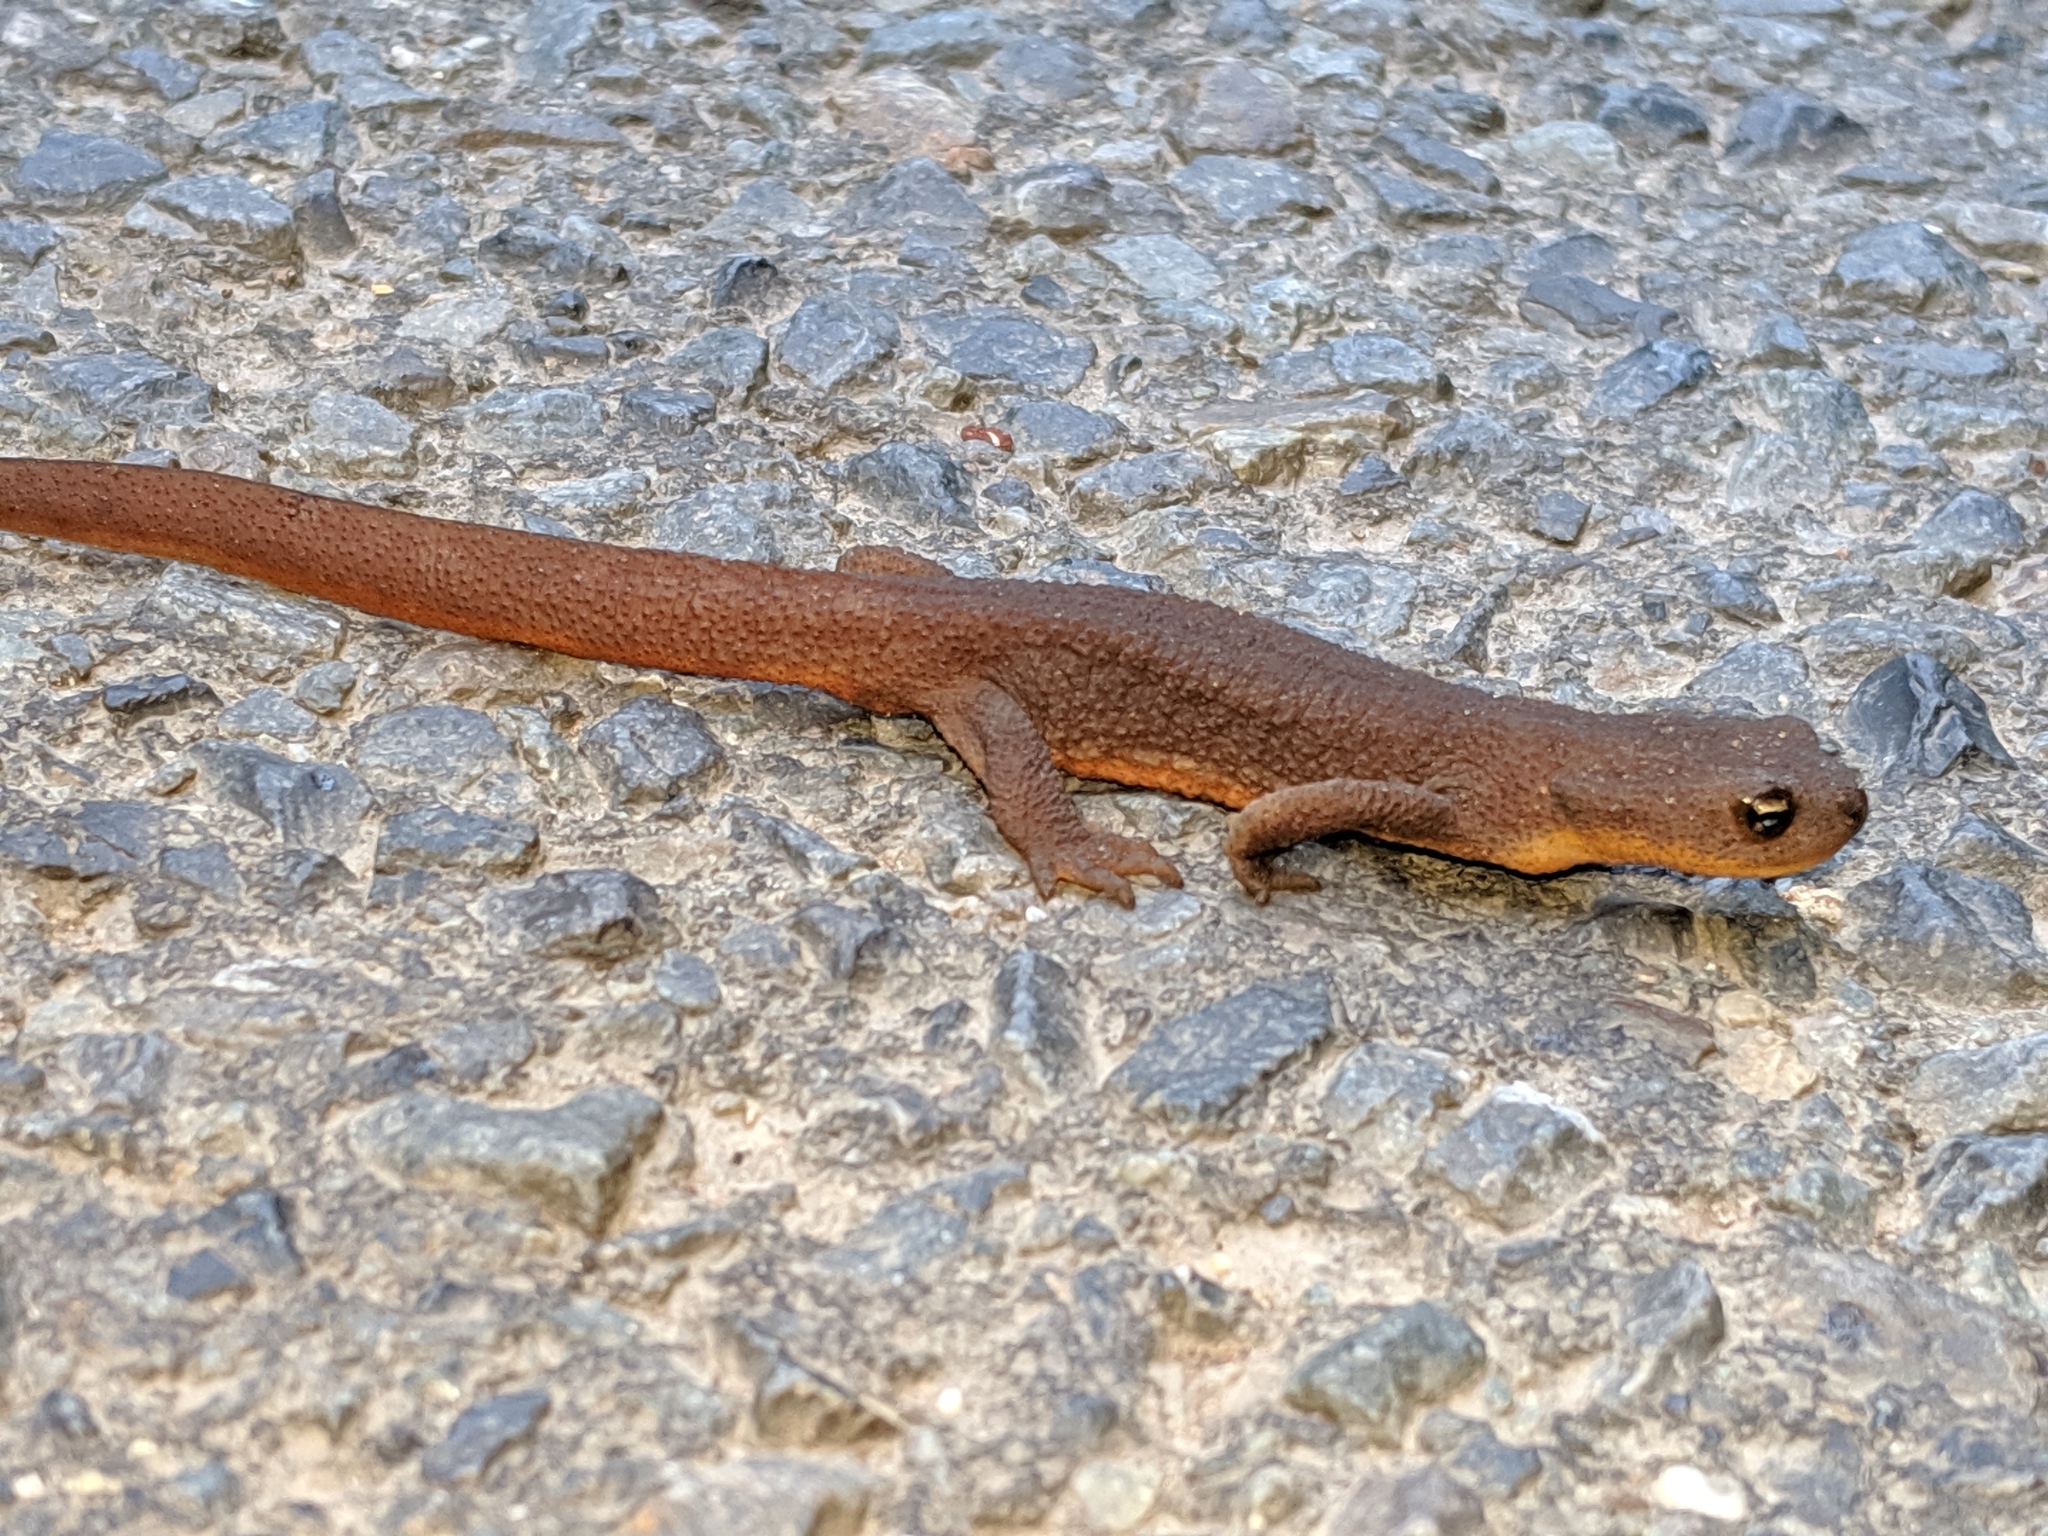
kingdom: Animalia
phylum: Chordata
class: Amphibia
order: Caudata
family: Salamandridae
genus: Taricha
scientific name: Taricha granulosa
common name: Roughskin newt
